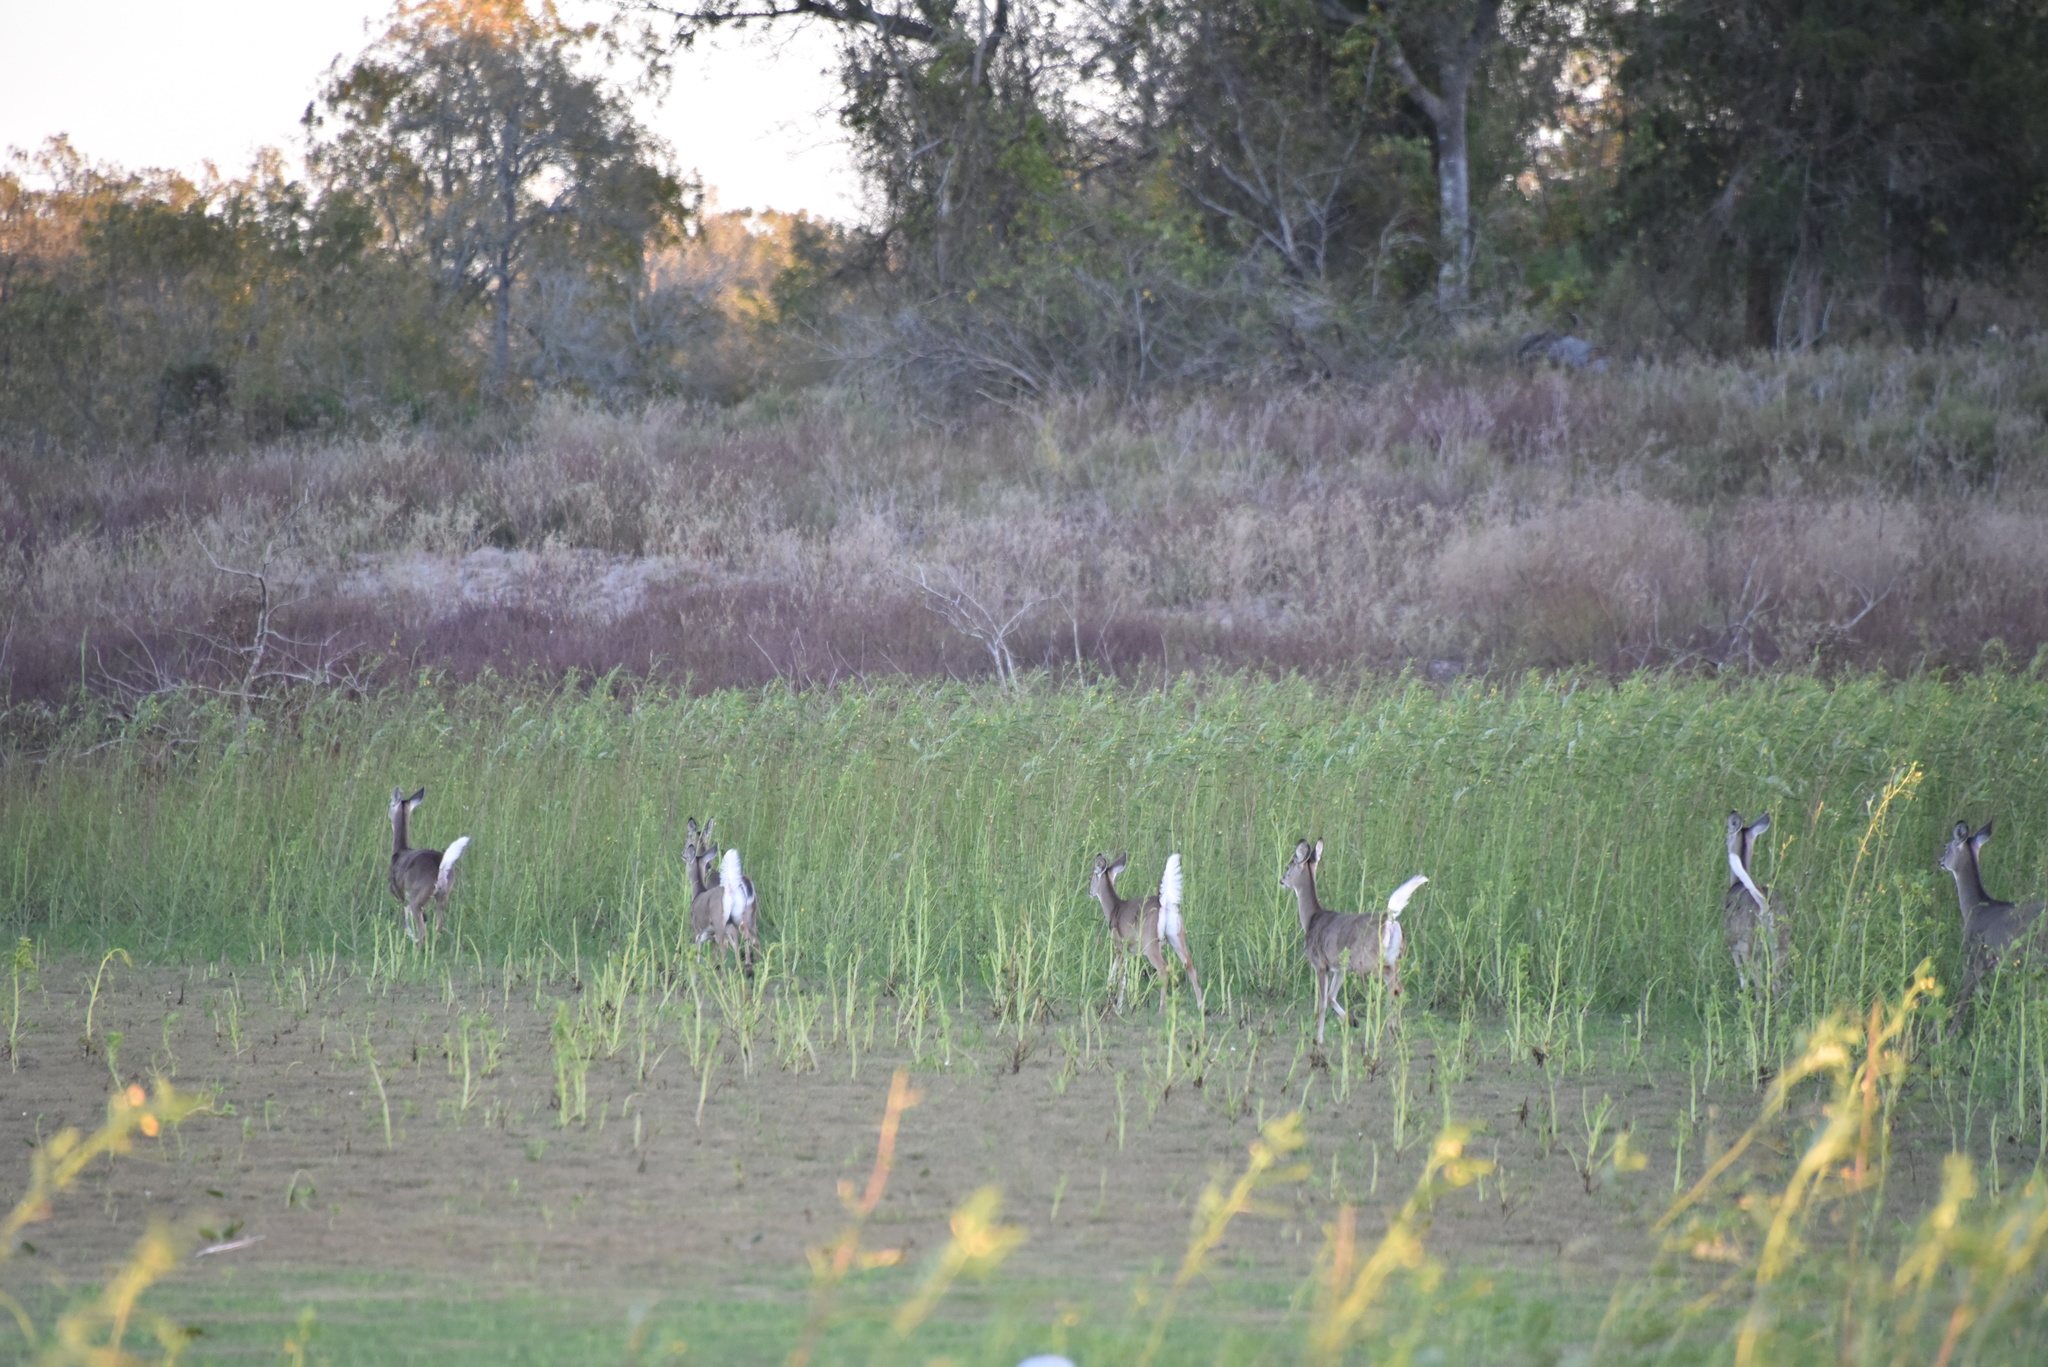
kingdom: Animalia
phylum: Chordata
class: Mammalia
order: Artiodactyla
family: Cervidae
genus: Odocoileus
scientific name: Odocoileus virginianus
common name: White-tailed deer
